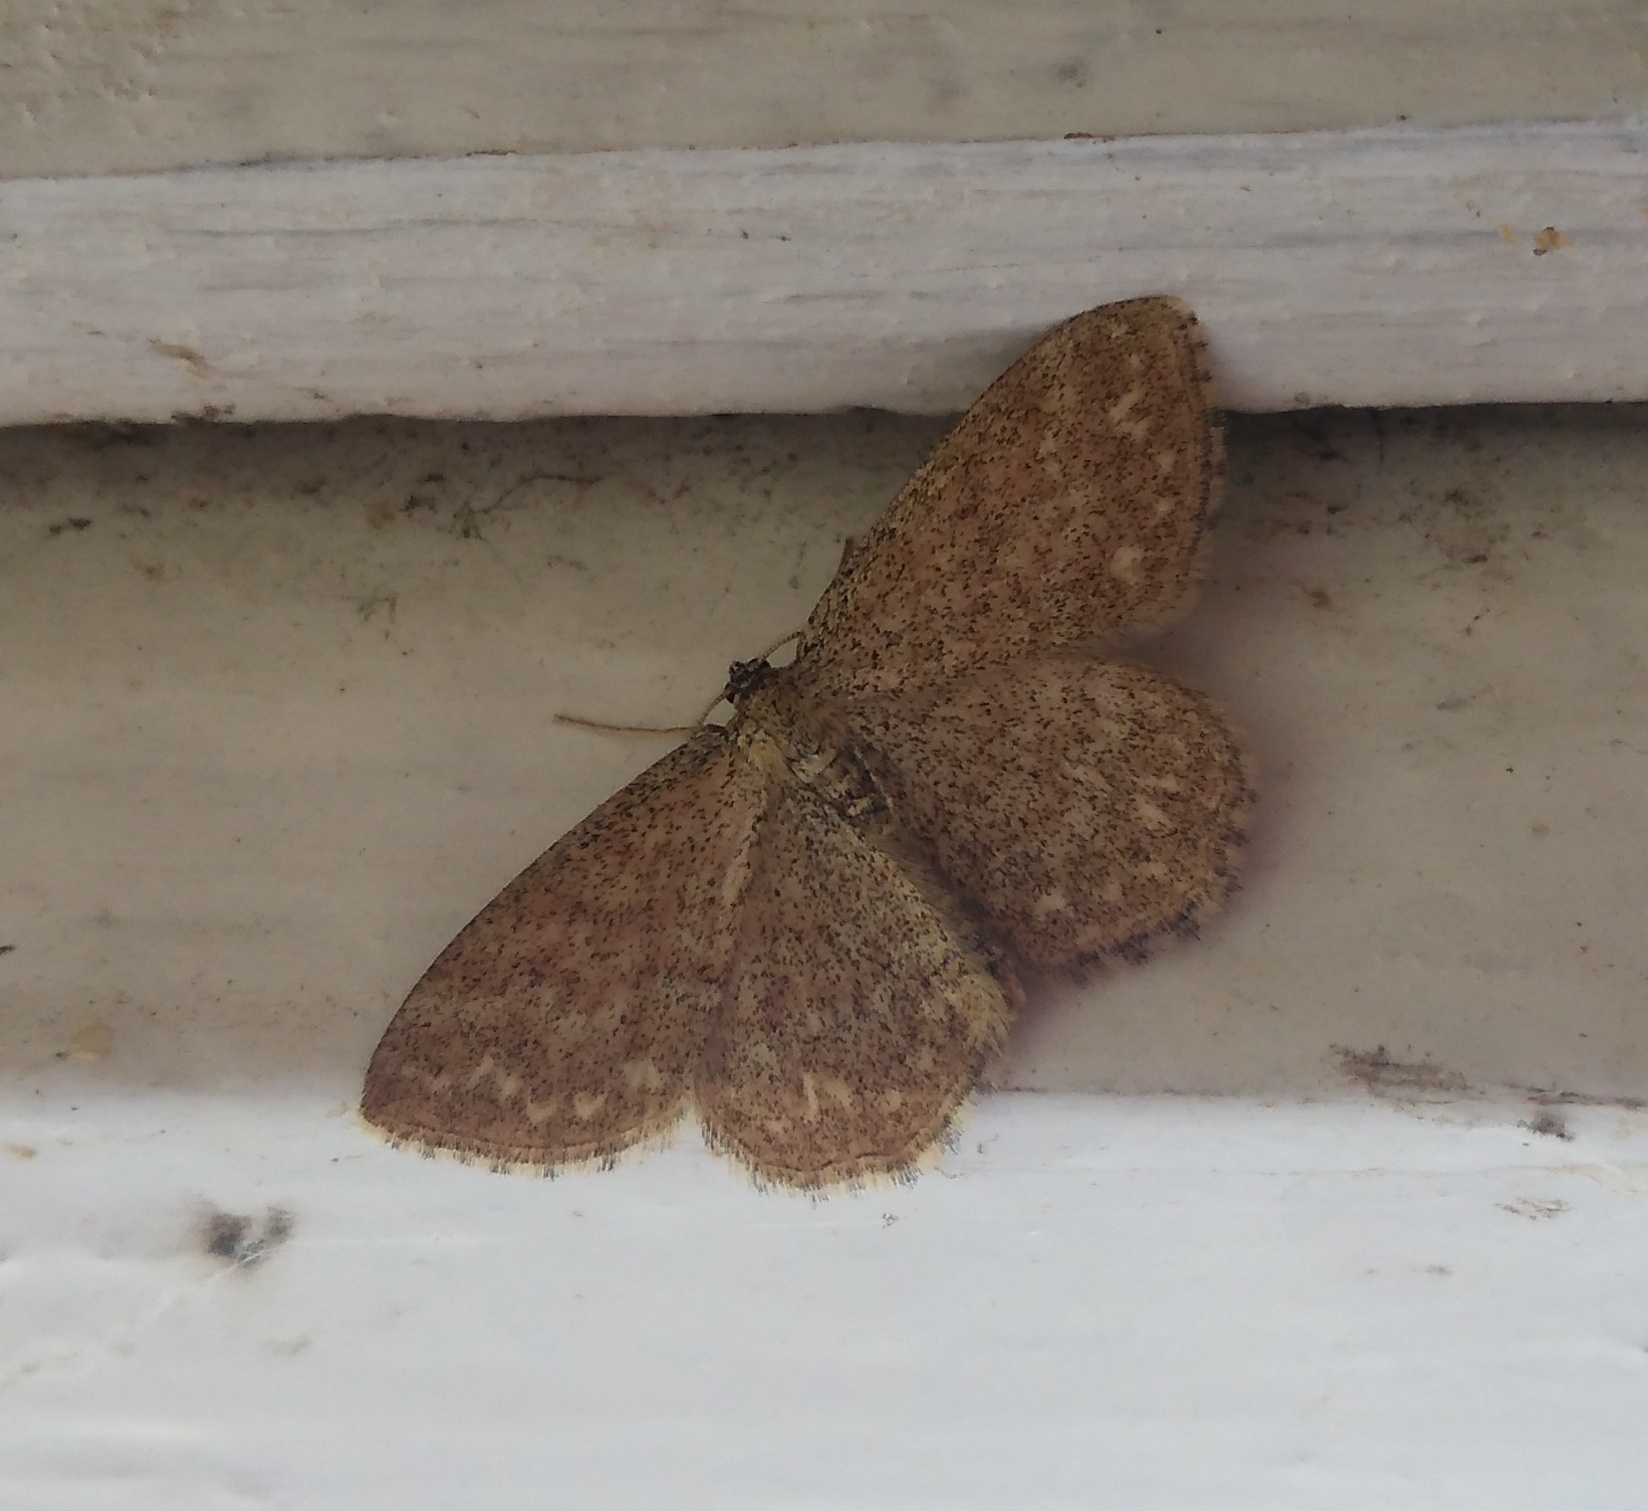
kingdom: Animalia
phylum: Arthropoda
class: Insecta
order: Lepidoptera
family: Geometridae
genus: Scopula
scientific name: Scopula immorata
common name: Lewes wave
